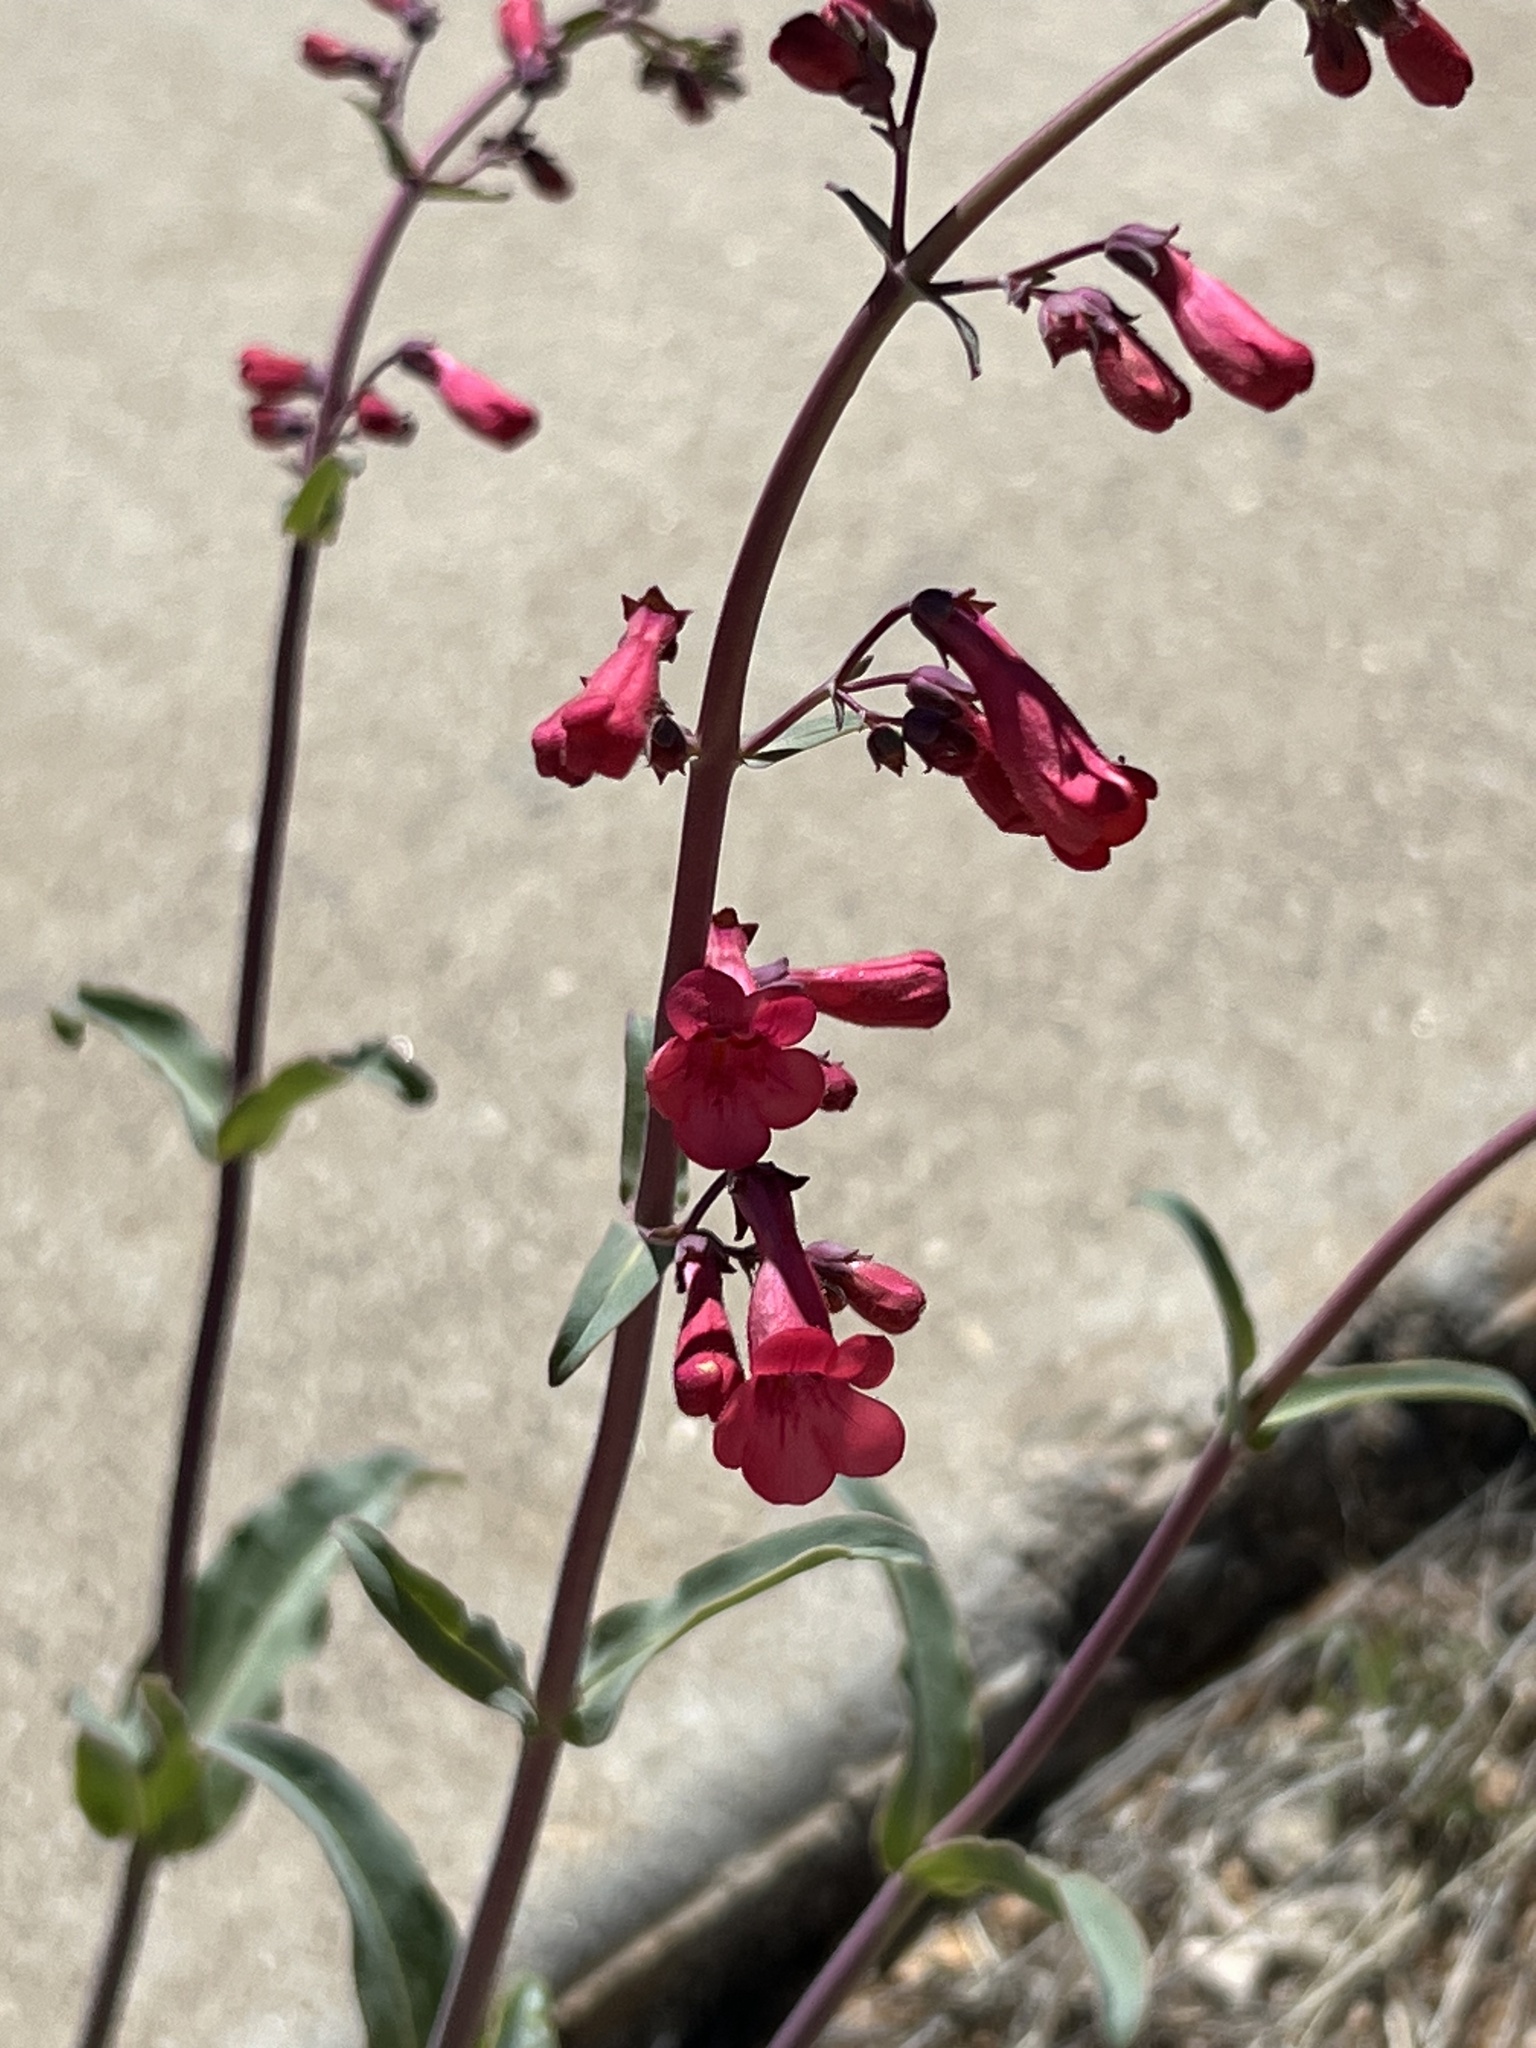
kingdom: Plantae
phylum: Tracheophyta
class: Magnoliopsida
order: Lamiales
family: Plantaginaceae
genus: Penstemon
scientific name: Penstemon parryi
